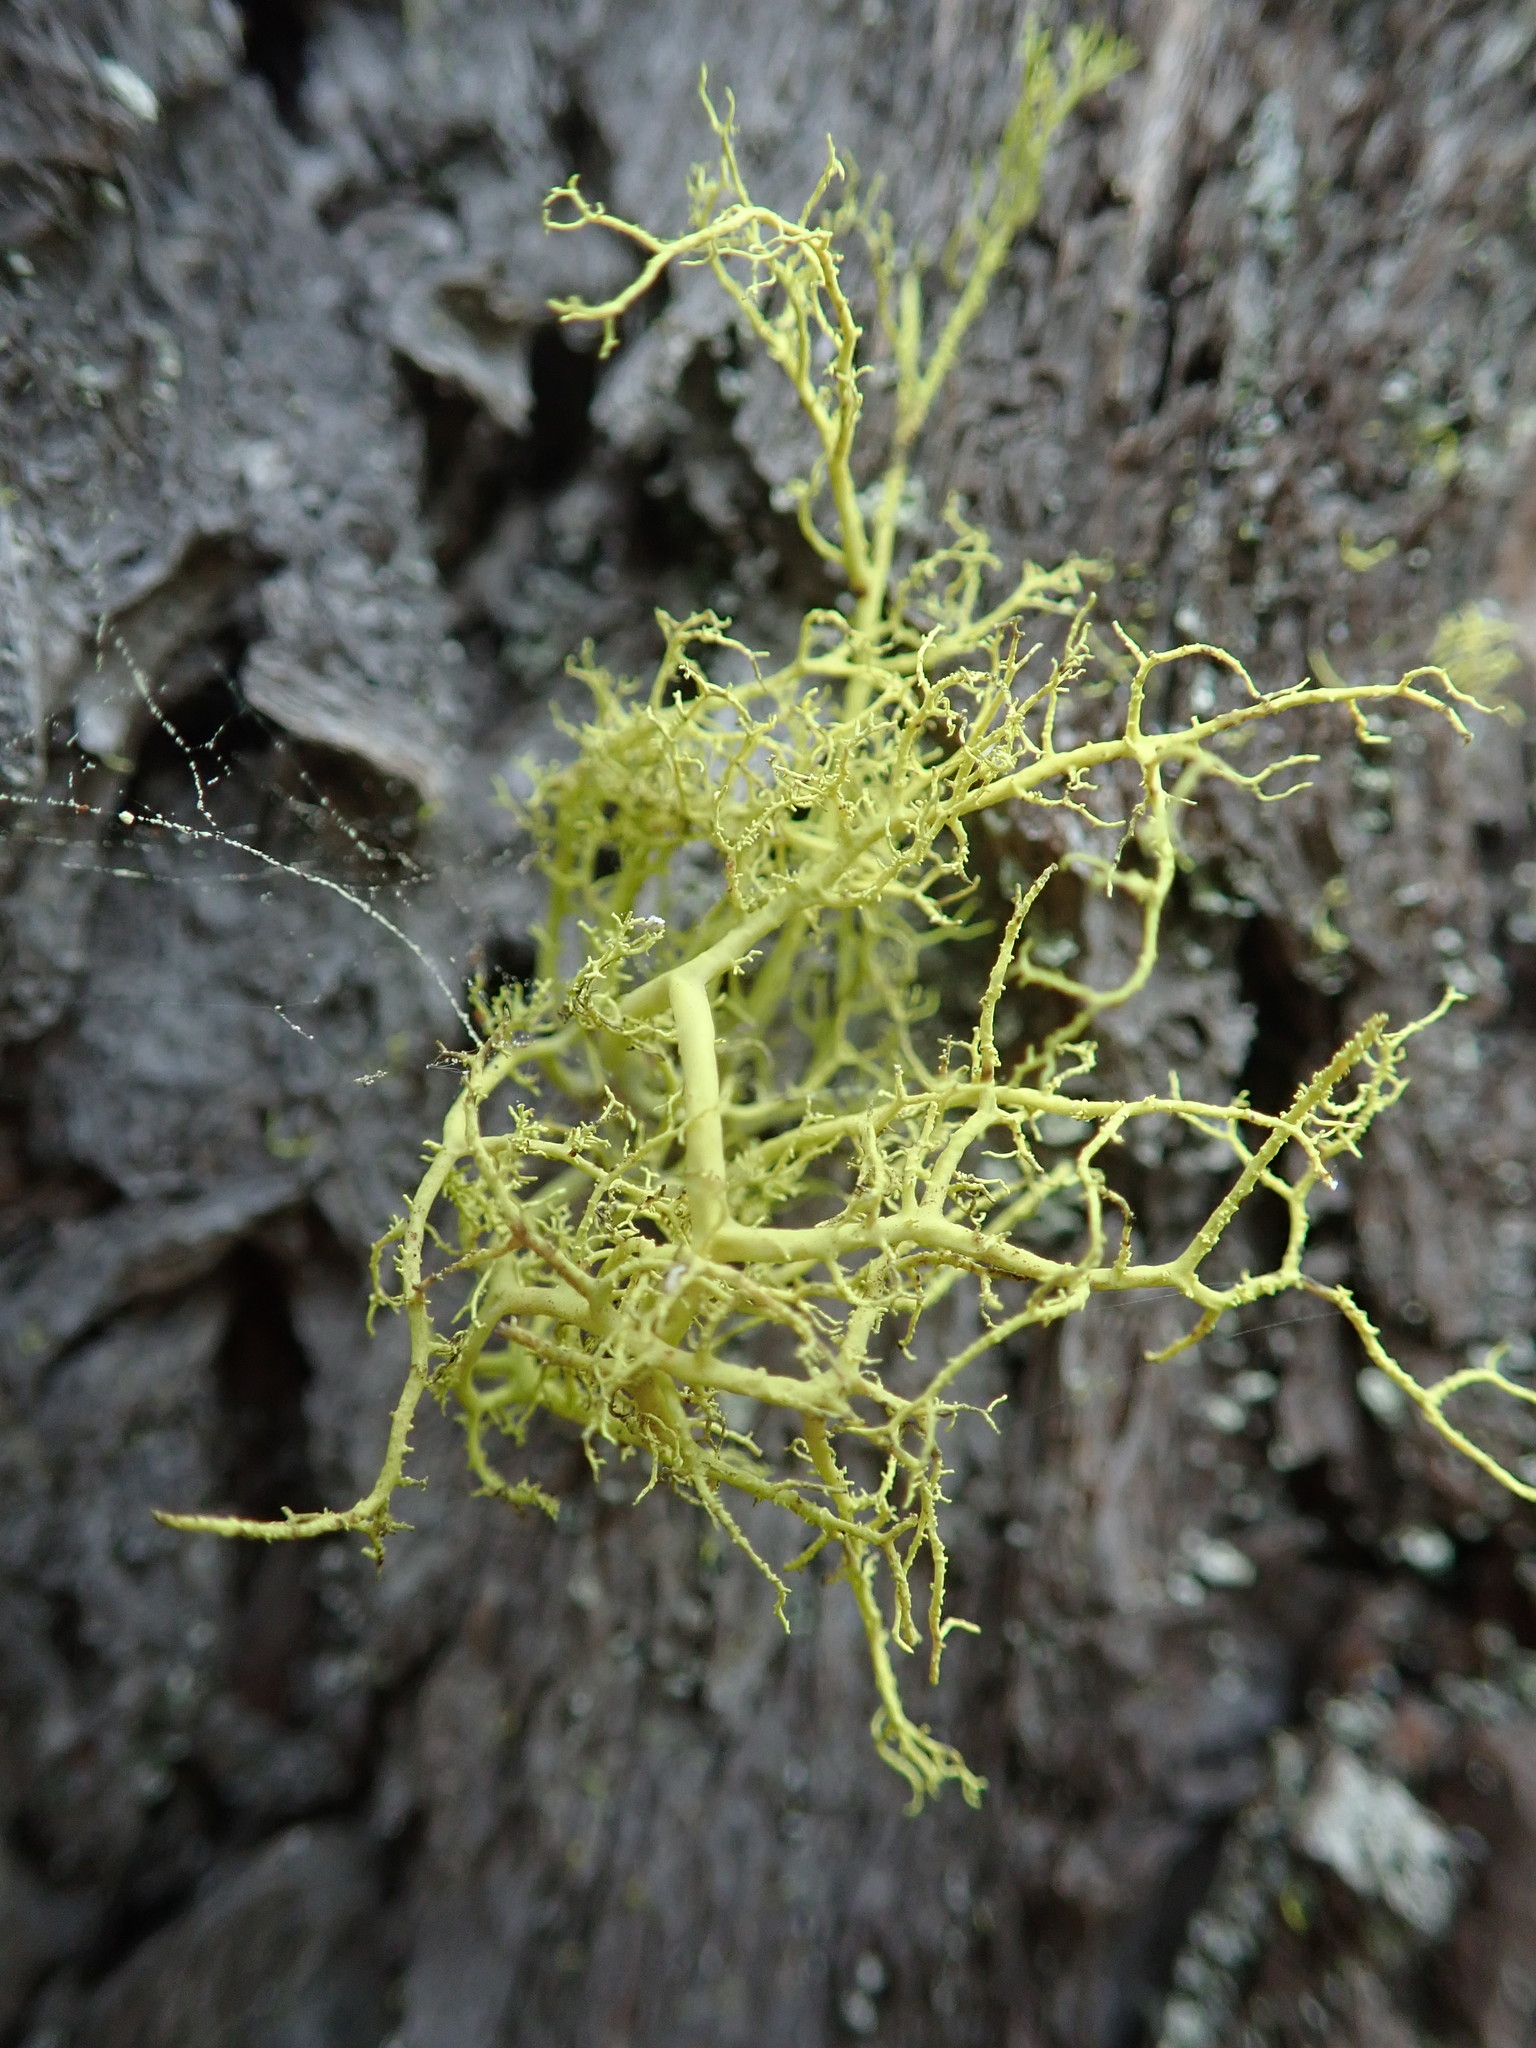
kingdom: Fungi
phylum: Ascomycota
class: Lecanoromycetes
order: Lecanorales
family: Parmeliaceae
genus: Letharia
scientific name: Letharia vulpina
